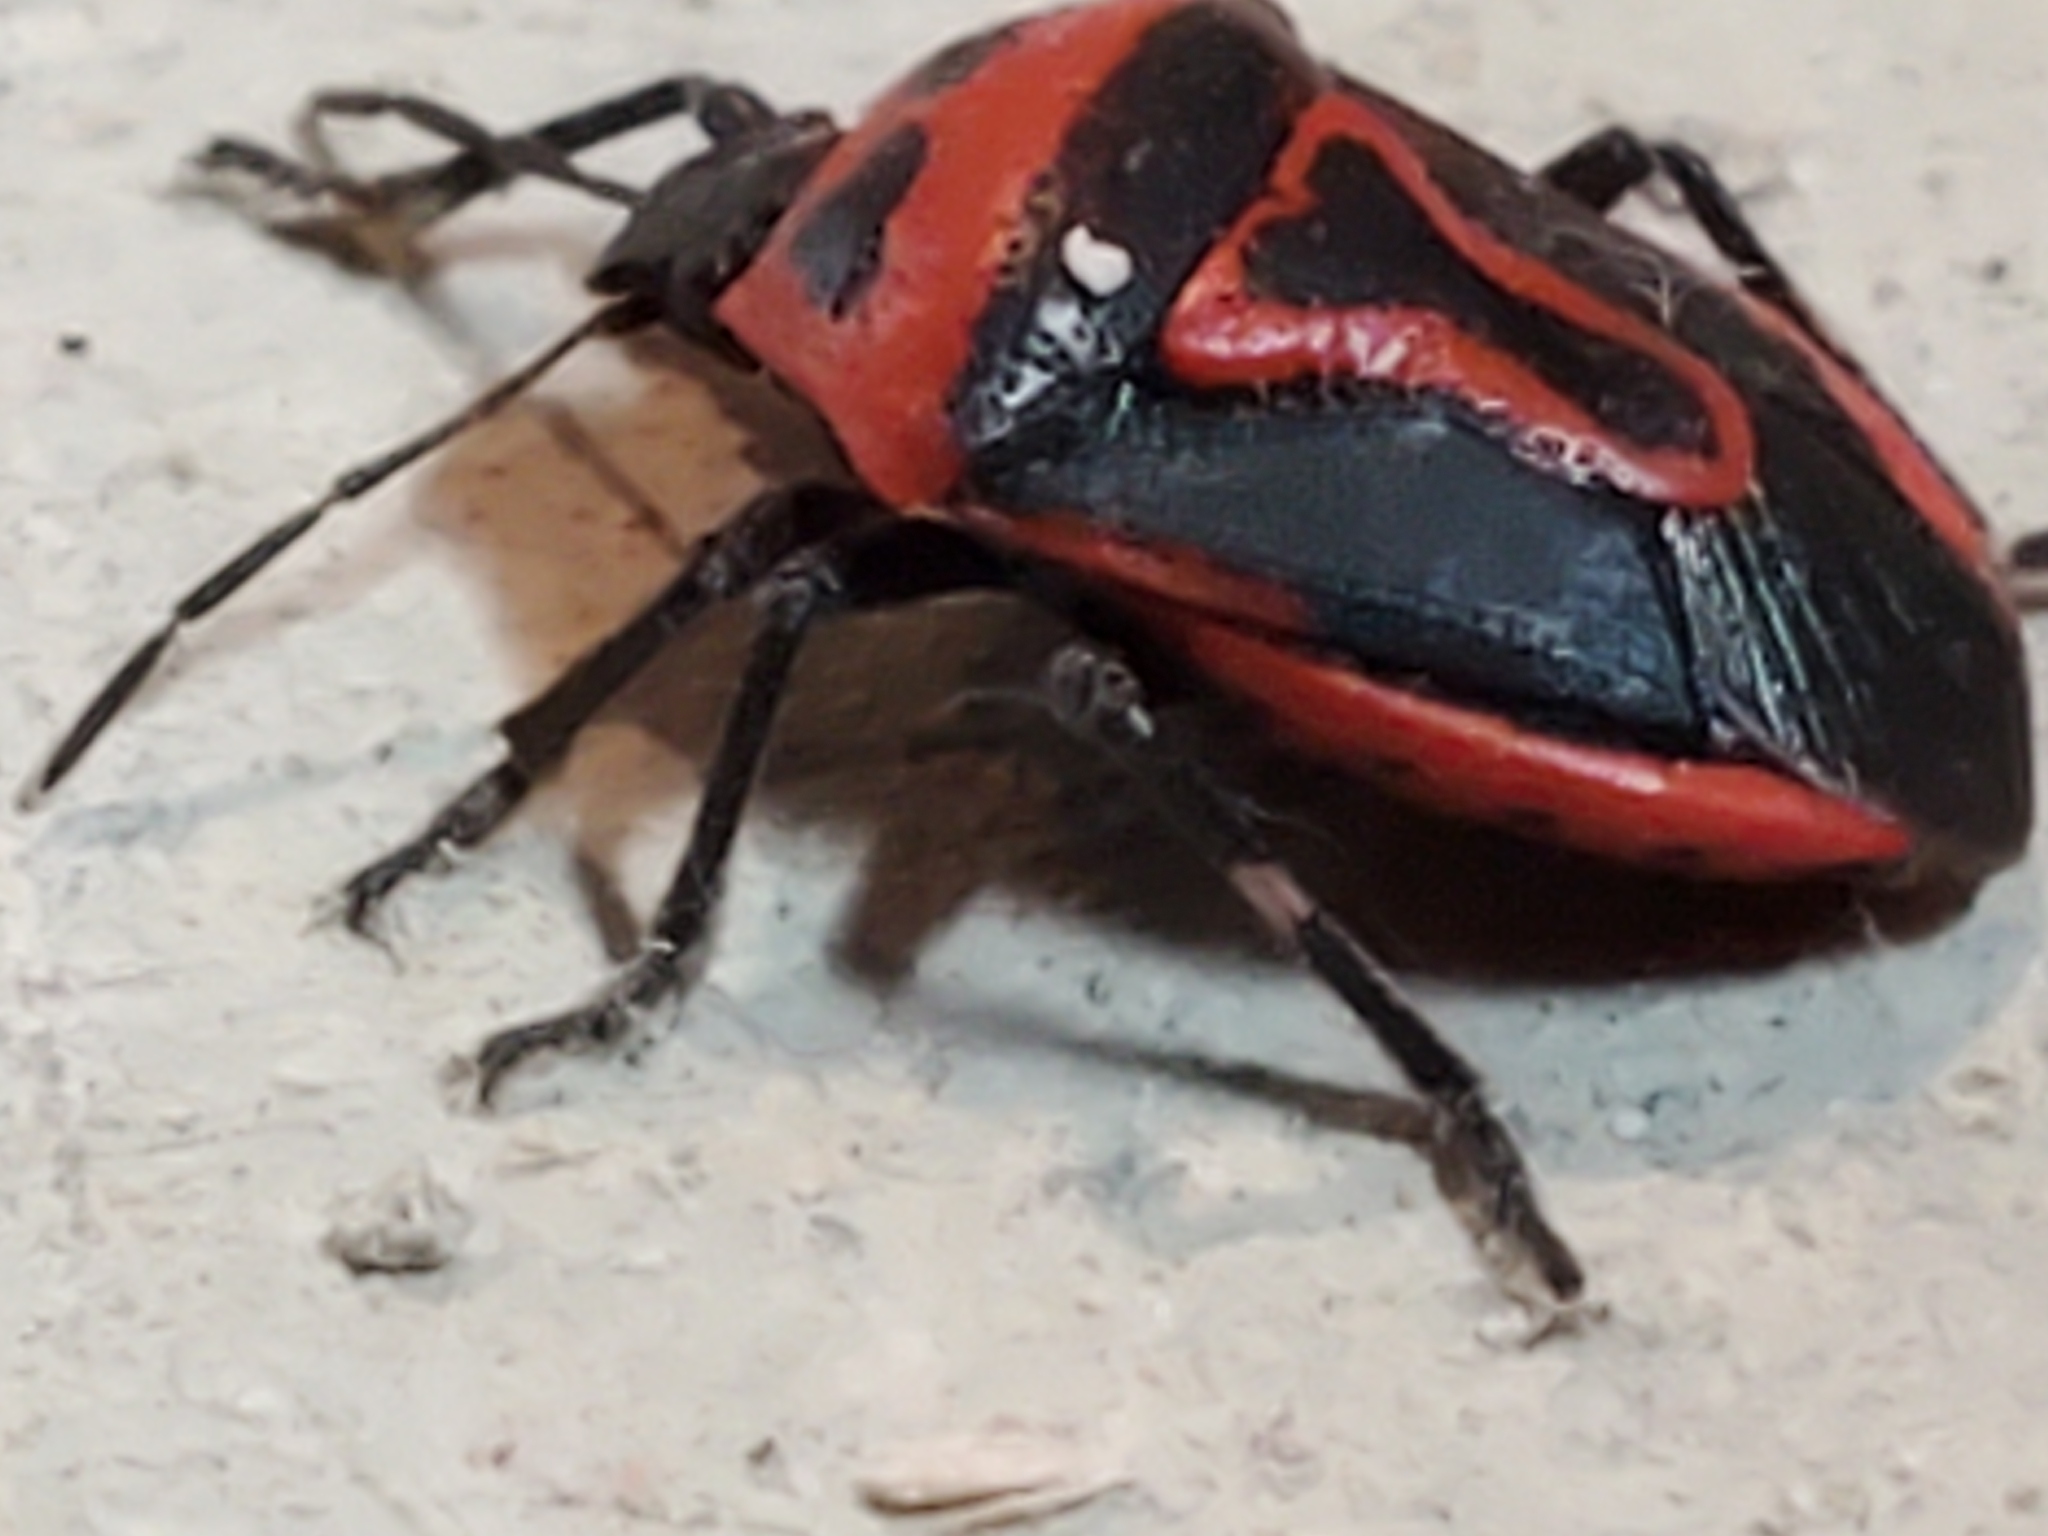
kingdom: Animalia
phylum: Arthropoda
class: Insecta
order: Hemiptera
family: Pentatomidae
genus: Perillus
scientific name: Perillus bioculatus
